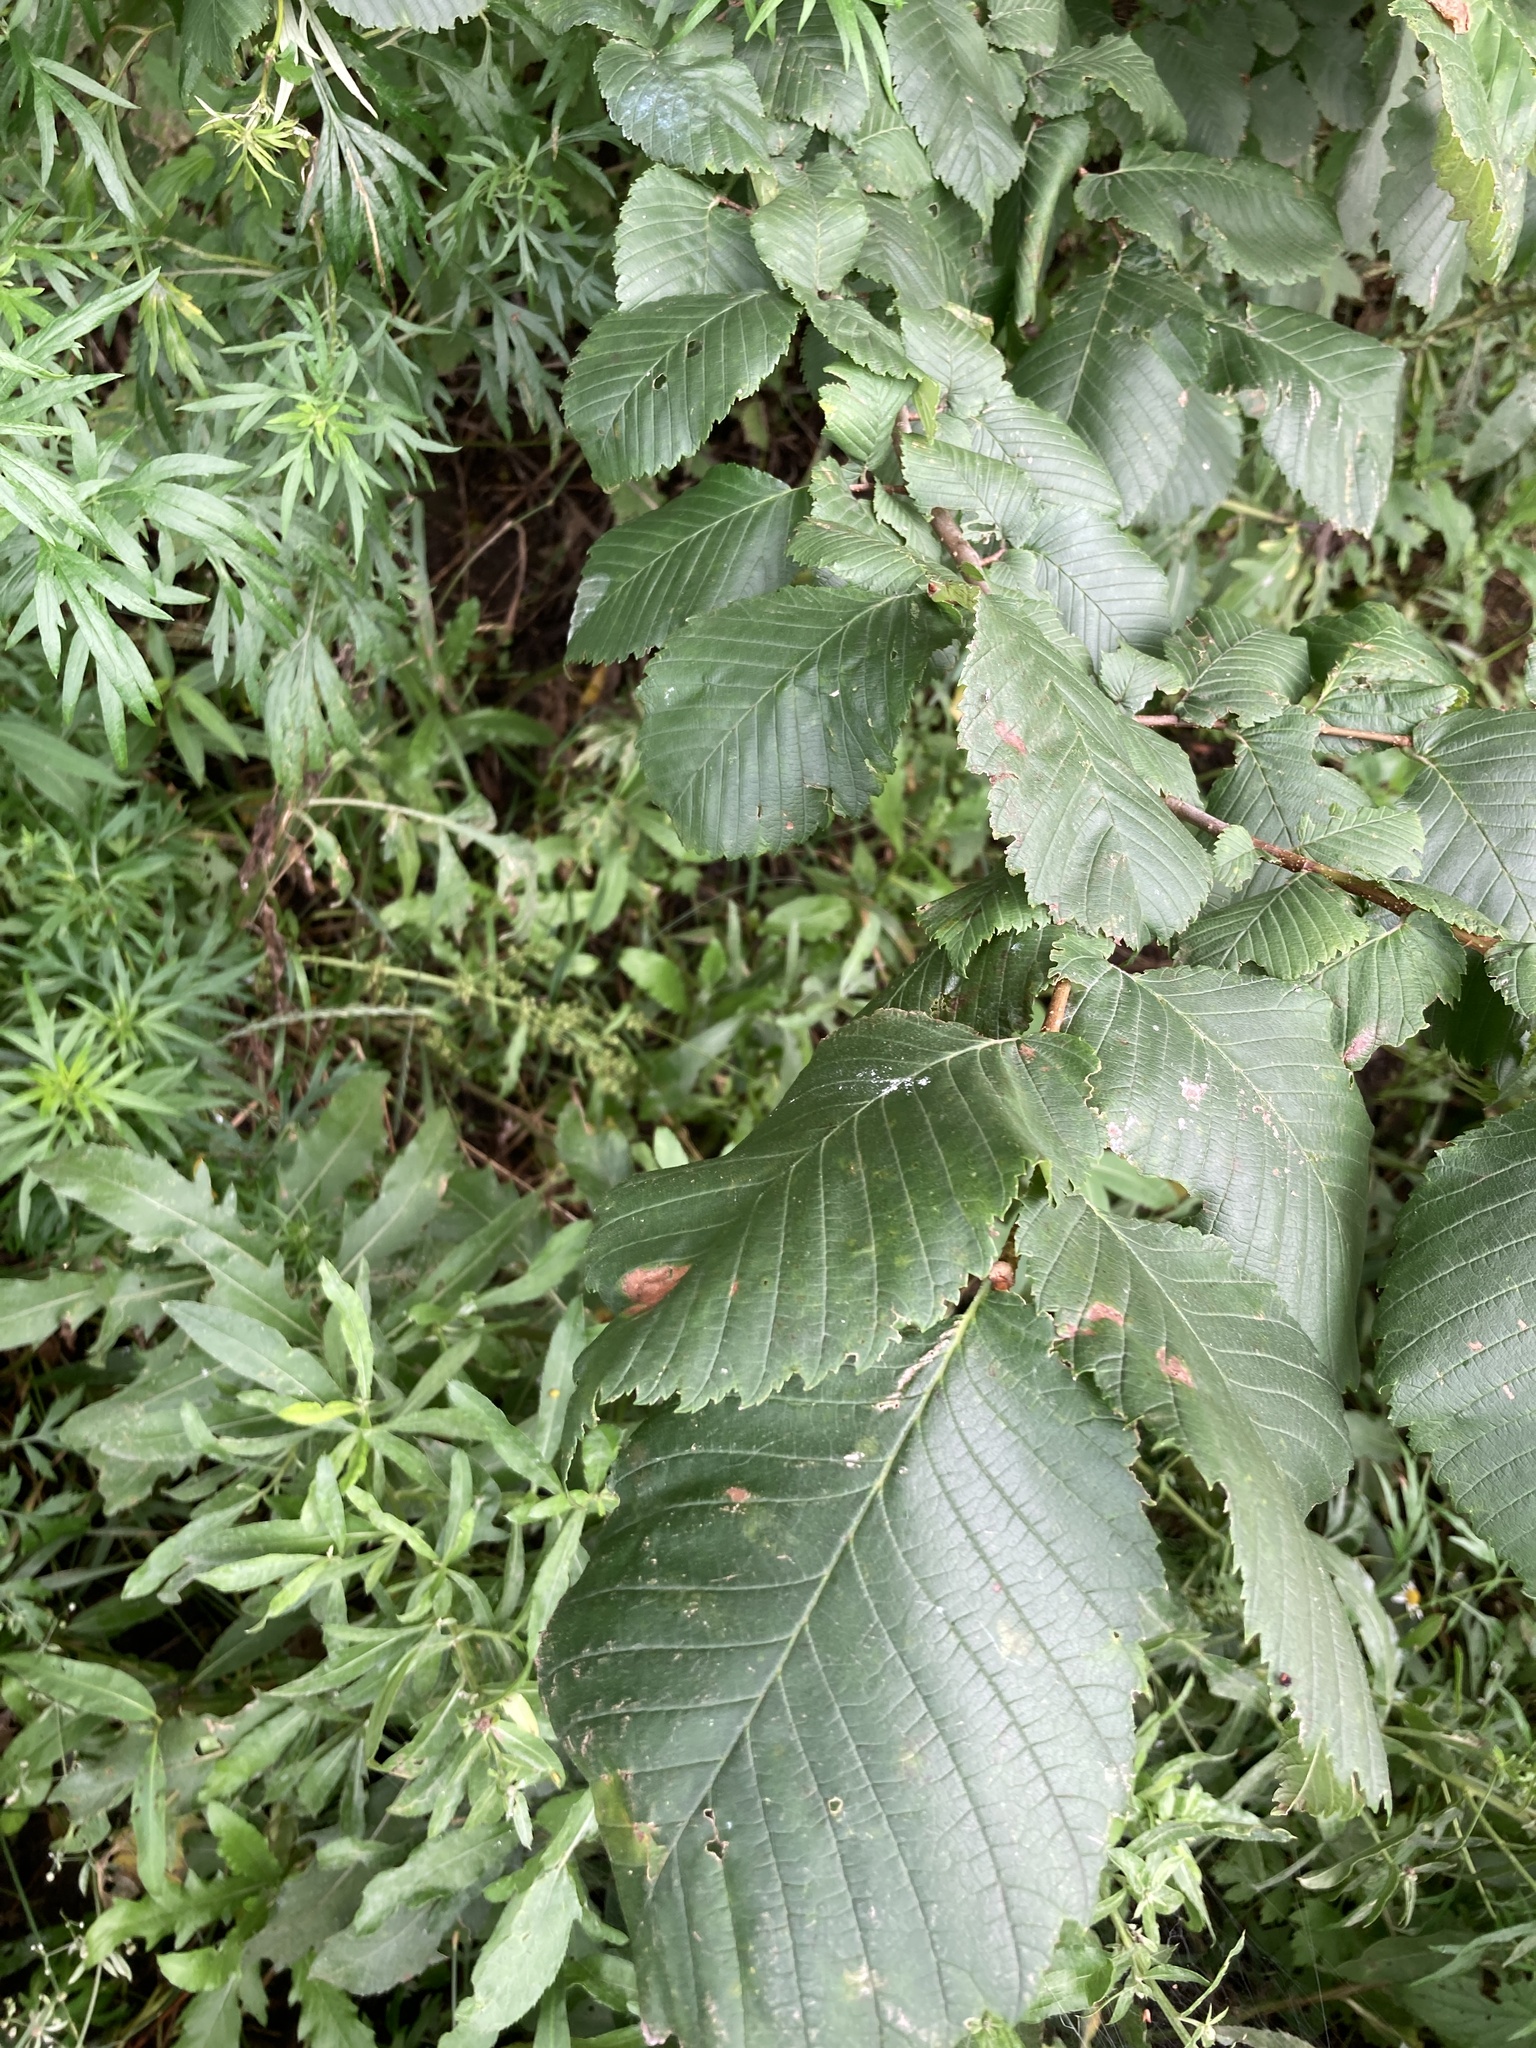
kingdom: Plantae
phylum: Tracheophyta
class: Magnoliopsida
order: Rosales
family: Ulmaceae
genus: Ulmus
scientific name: Ulmus laevis
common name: European white-elm
